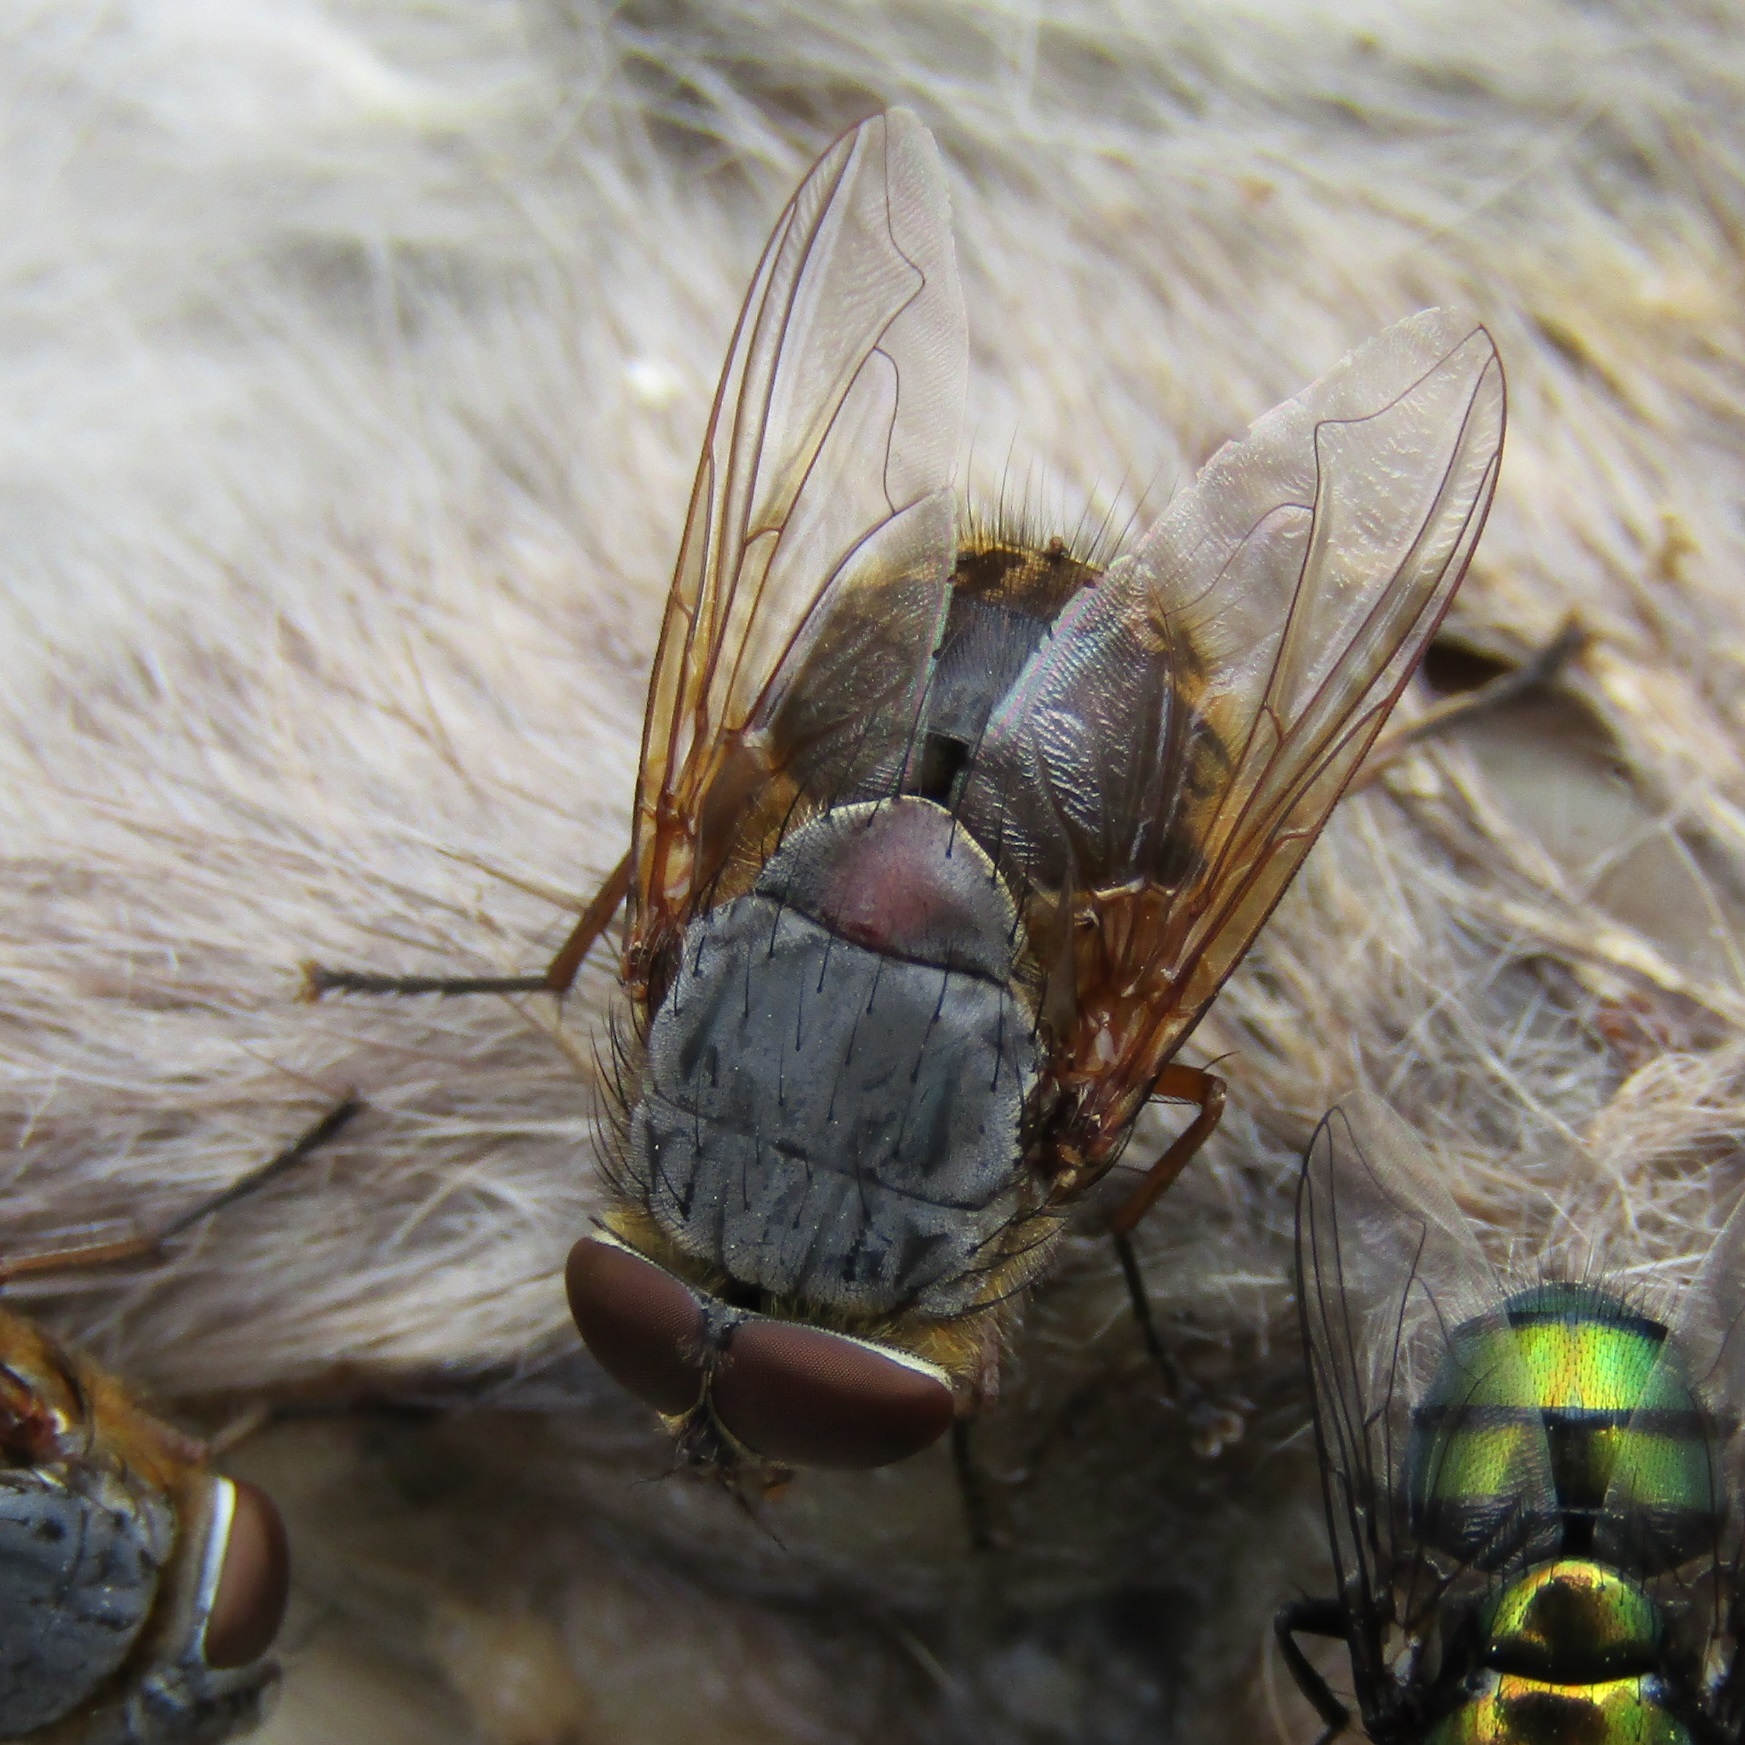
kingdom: Animalia
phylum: Arthropoda
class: Insecta
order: Diptera
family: Calliphoridae
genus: Calliphora
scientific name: Calliphora stygia
